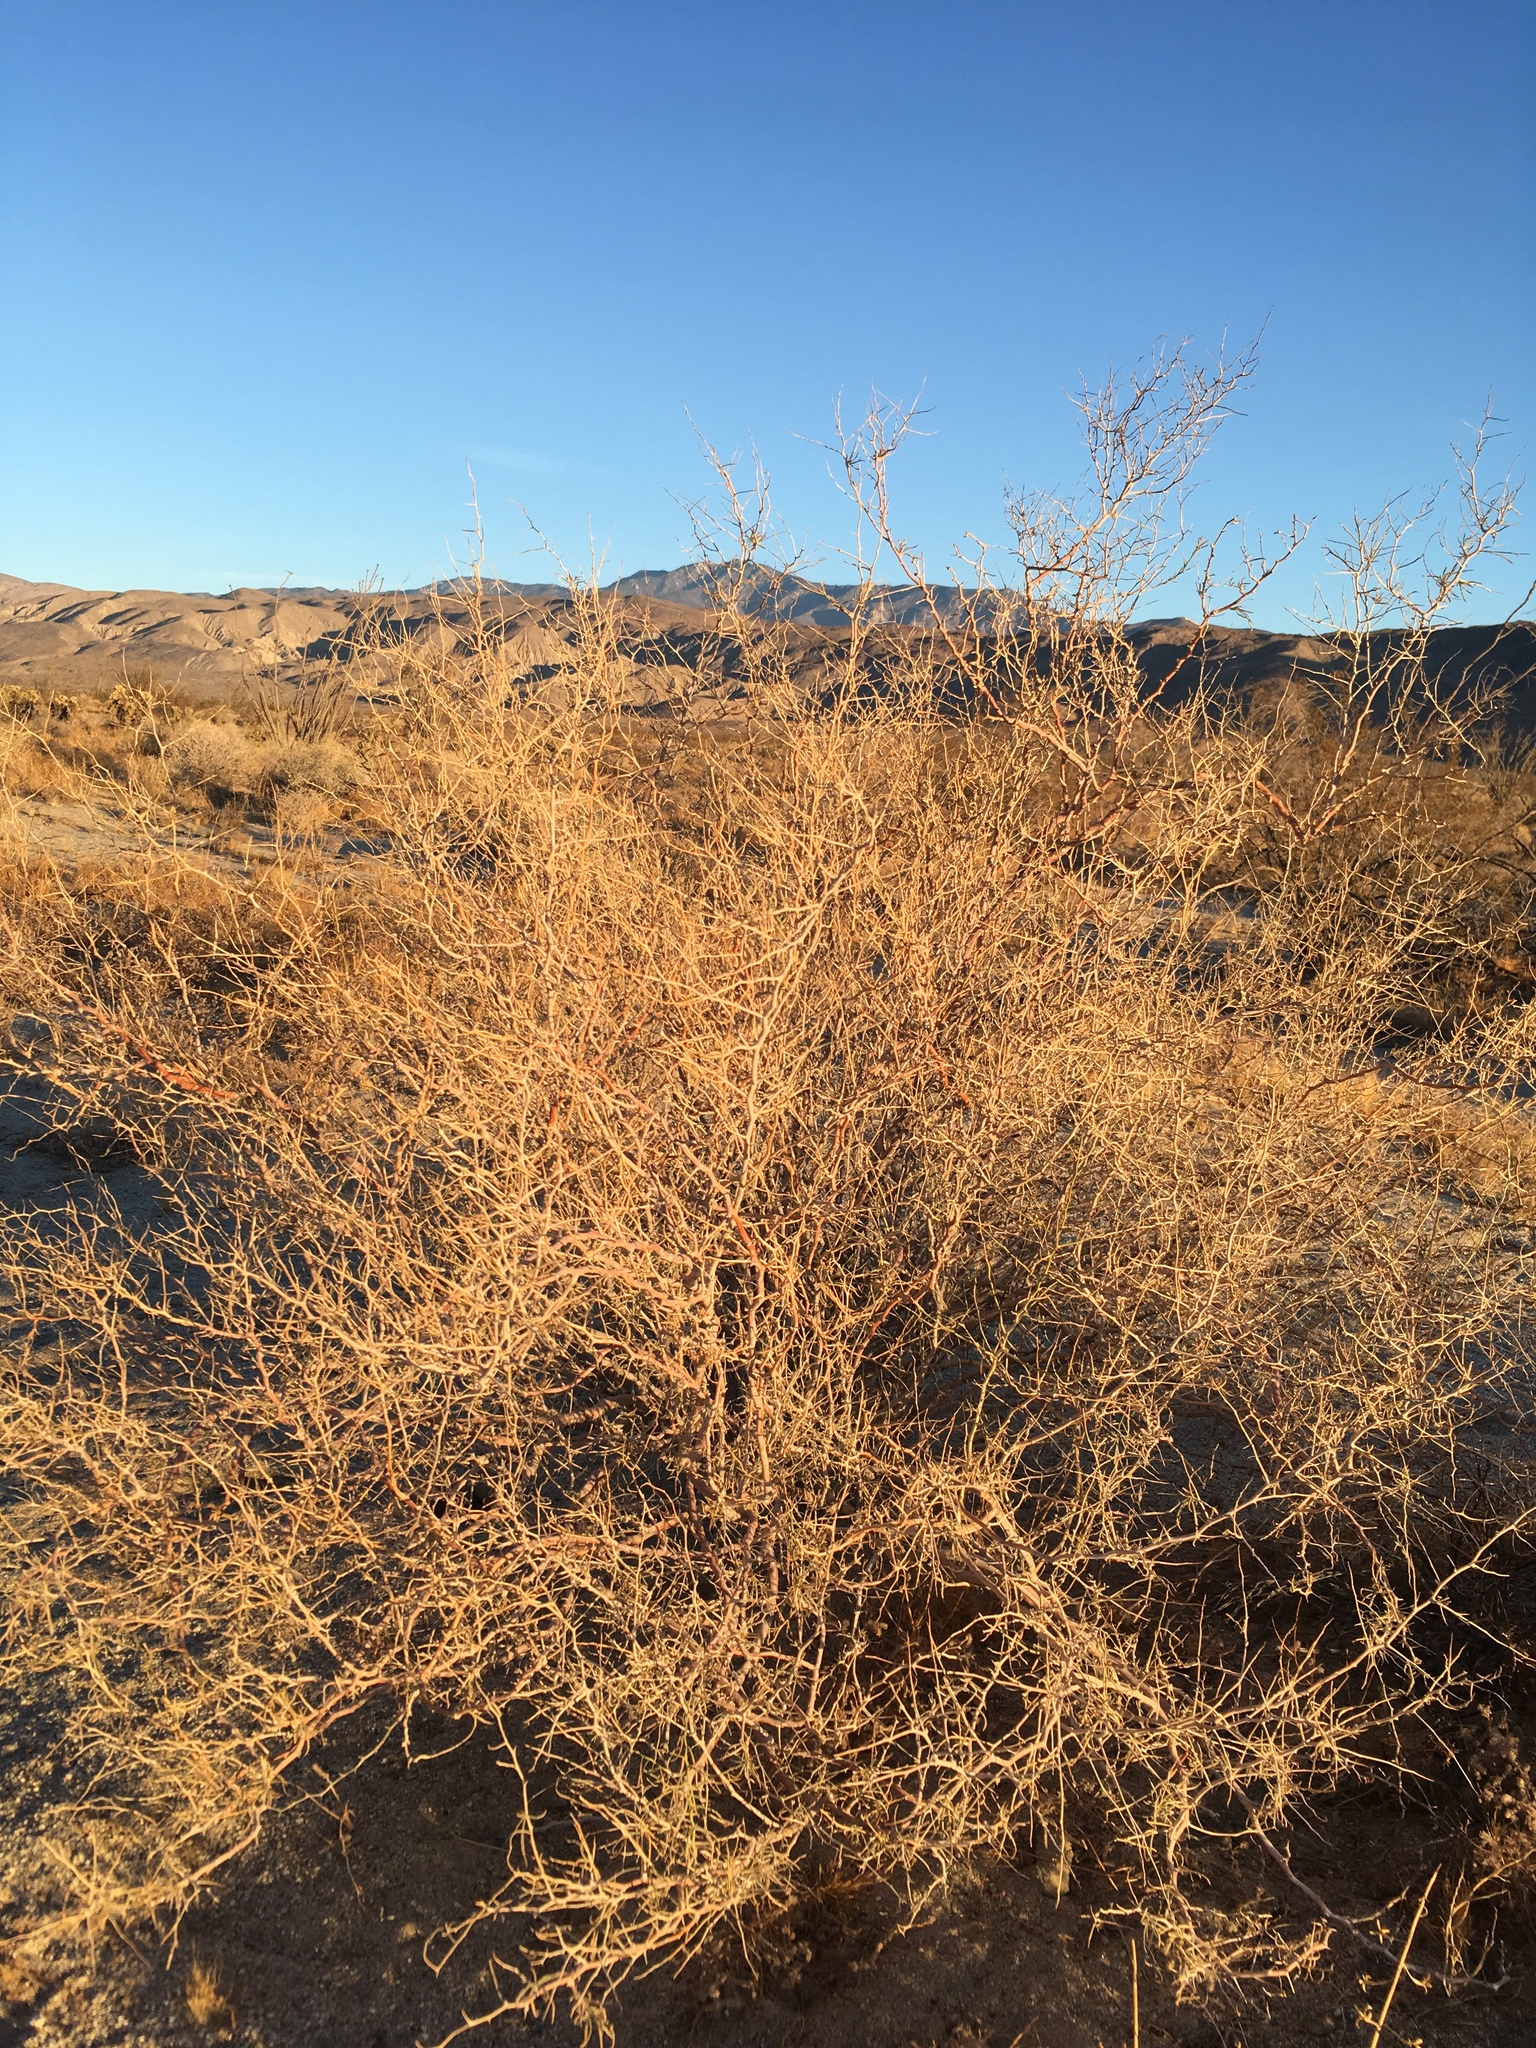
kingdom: Plantae
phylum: Tracheophyta
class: Magnoliopsida
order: Fabales
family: Fabaceae
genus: Psorothamnus
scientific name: Psorothamnus schottii
